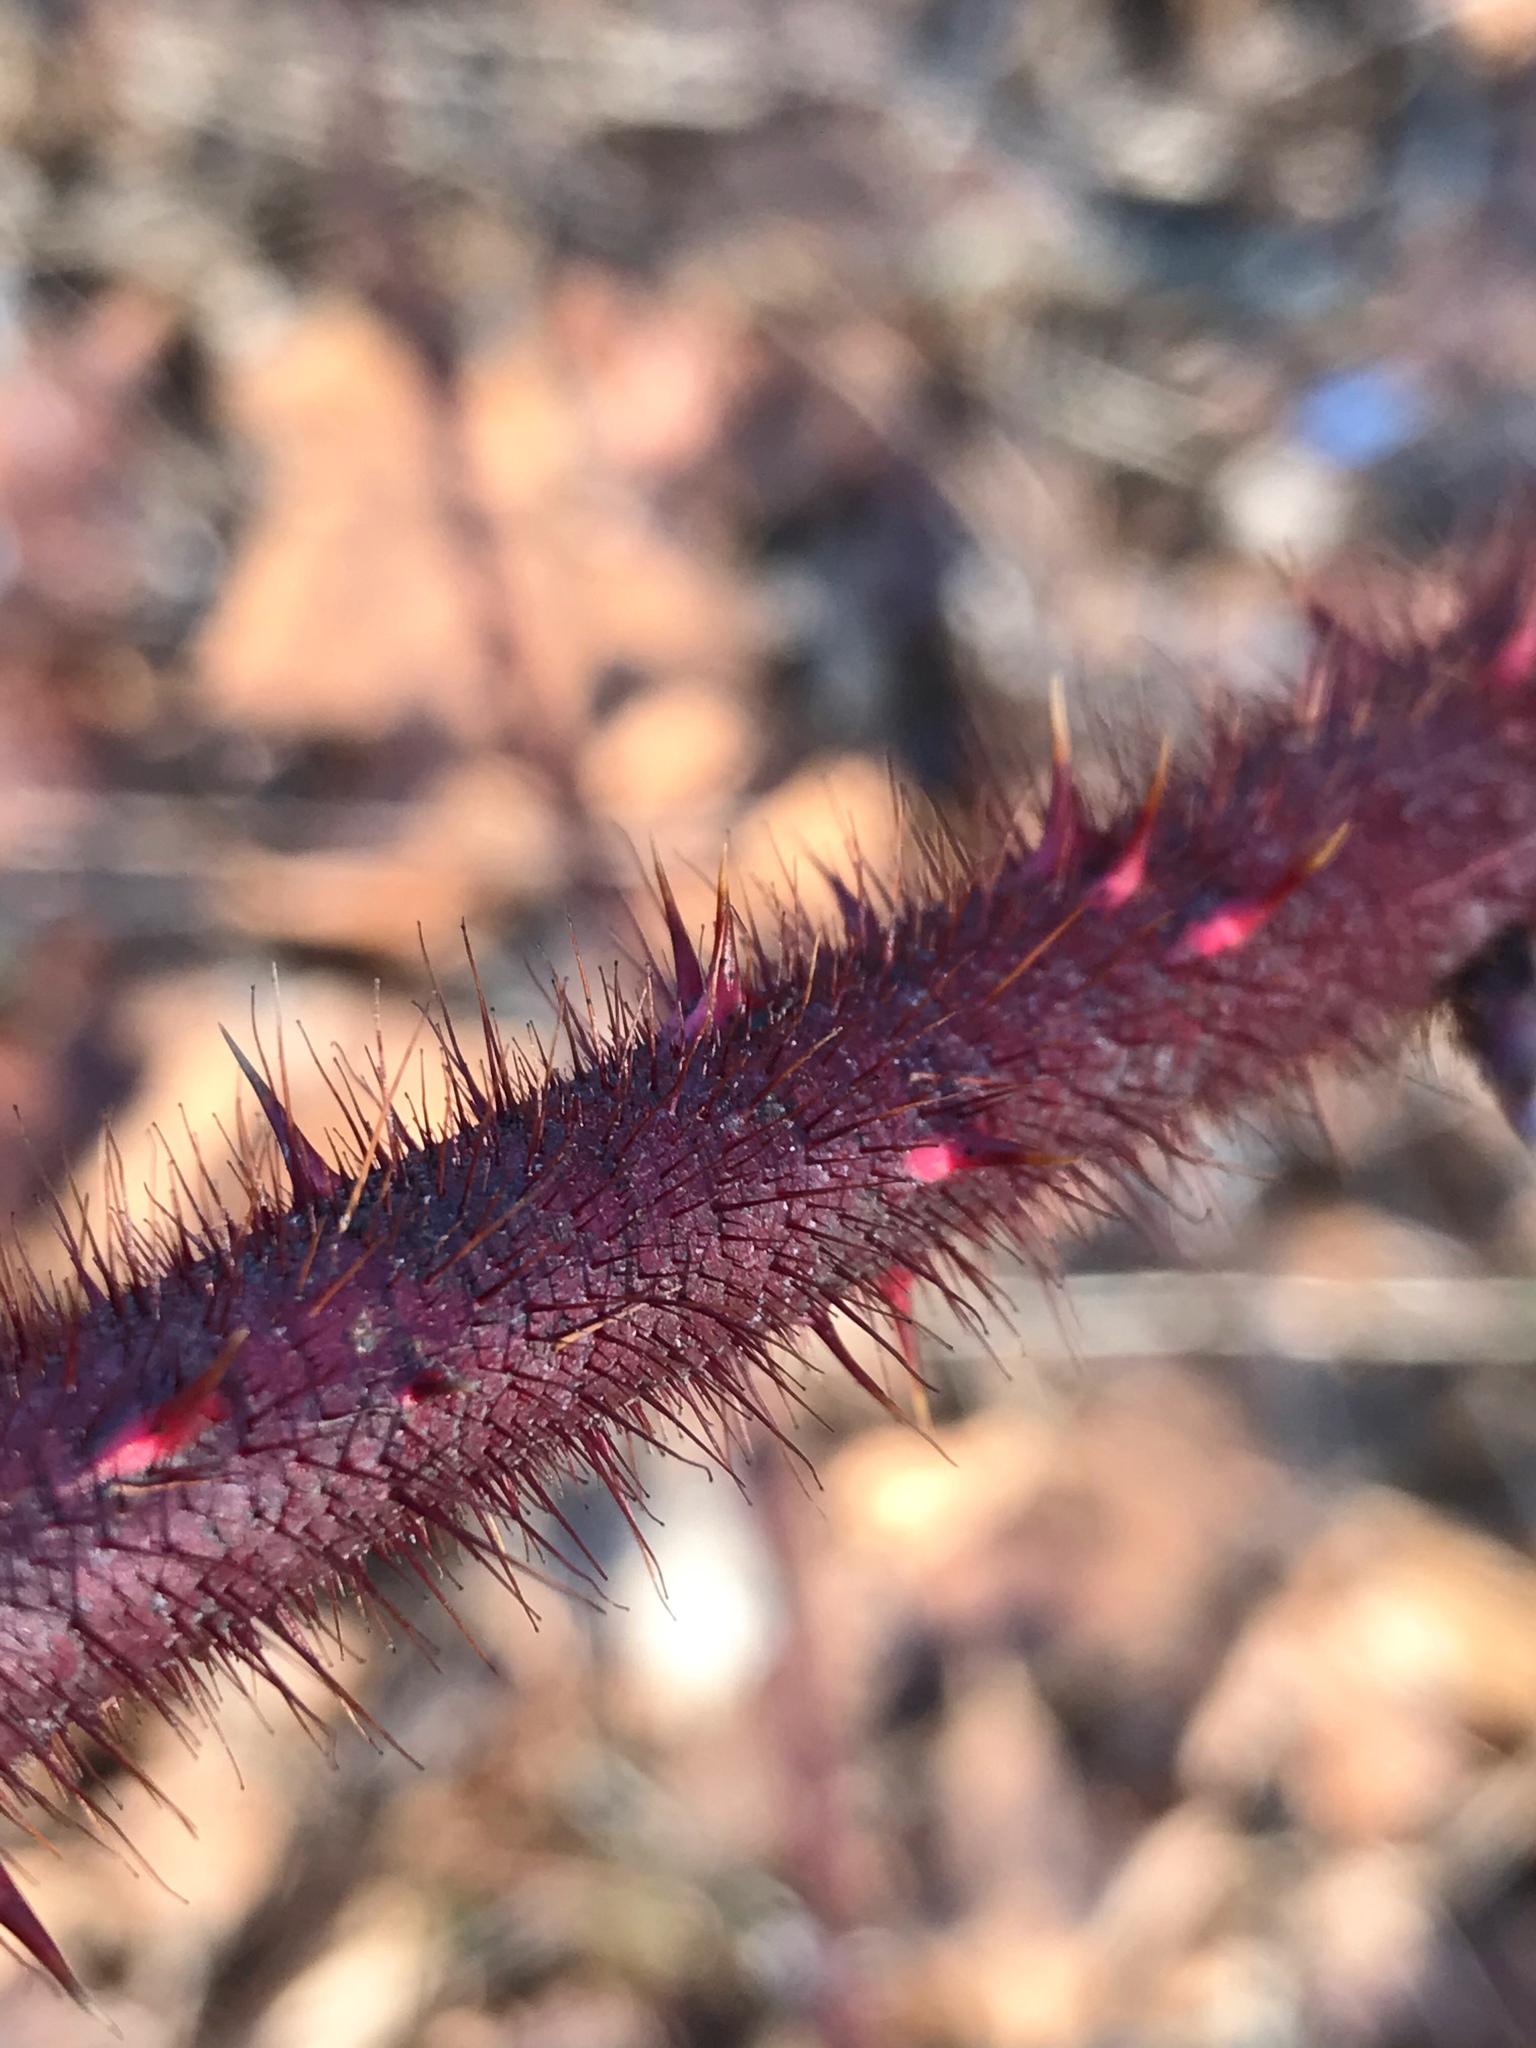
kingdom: Plantae
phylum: Tracheophyta
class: Magnoliopsida
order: Rosales
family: Rosaceae
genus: Rubus
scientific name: Rubus phoenicolasius
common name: Japanese wineberry
